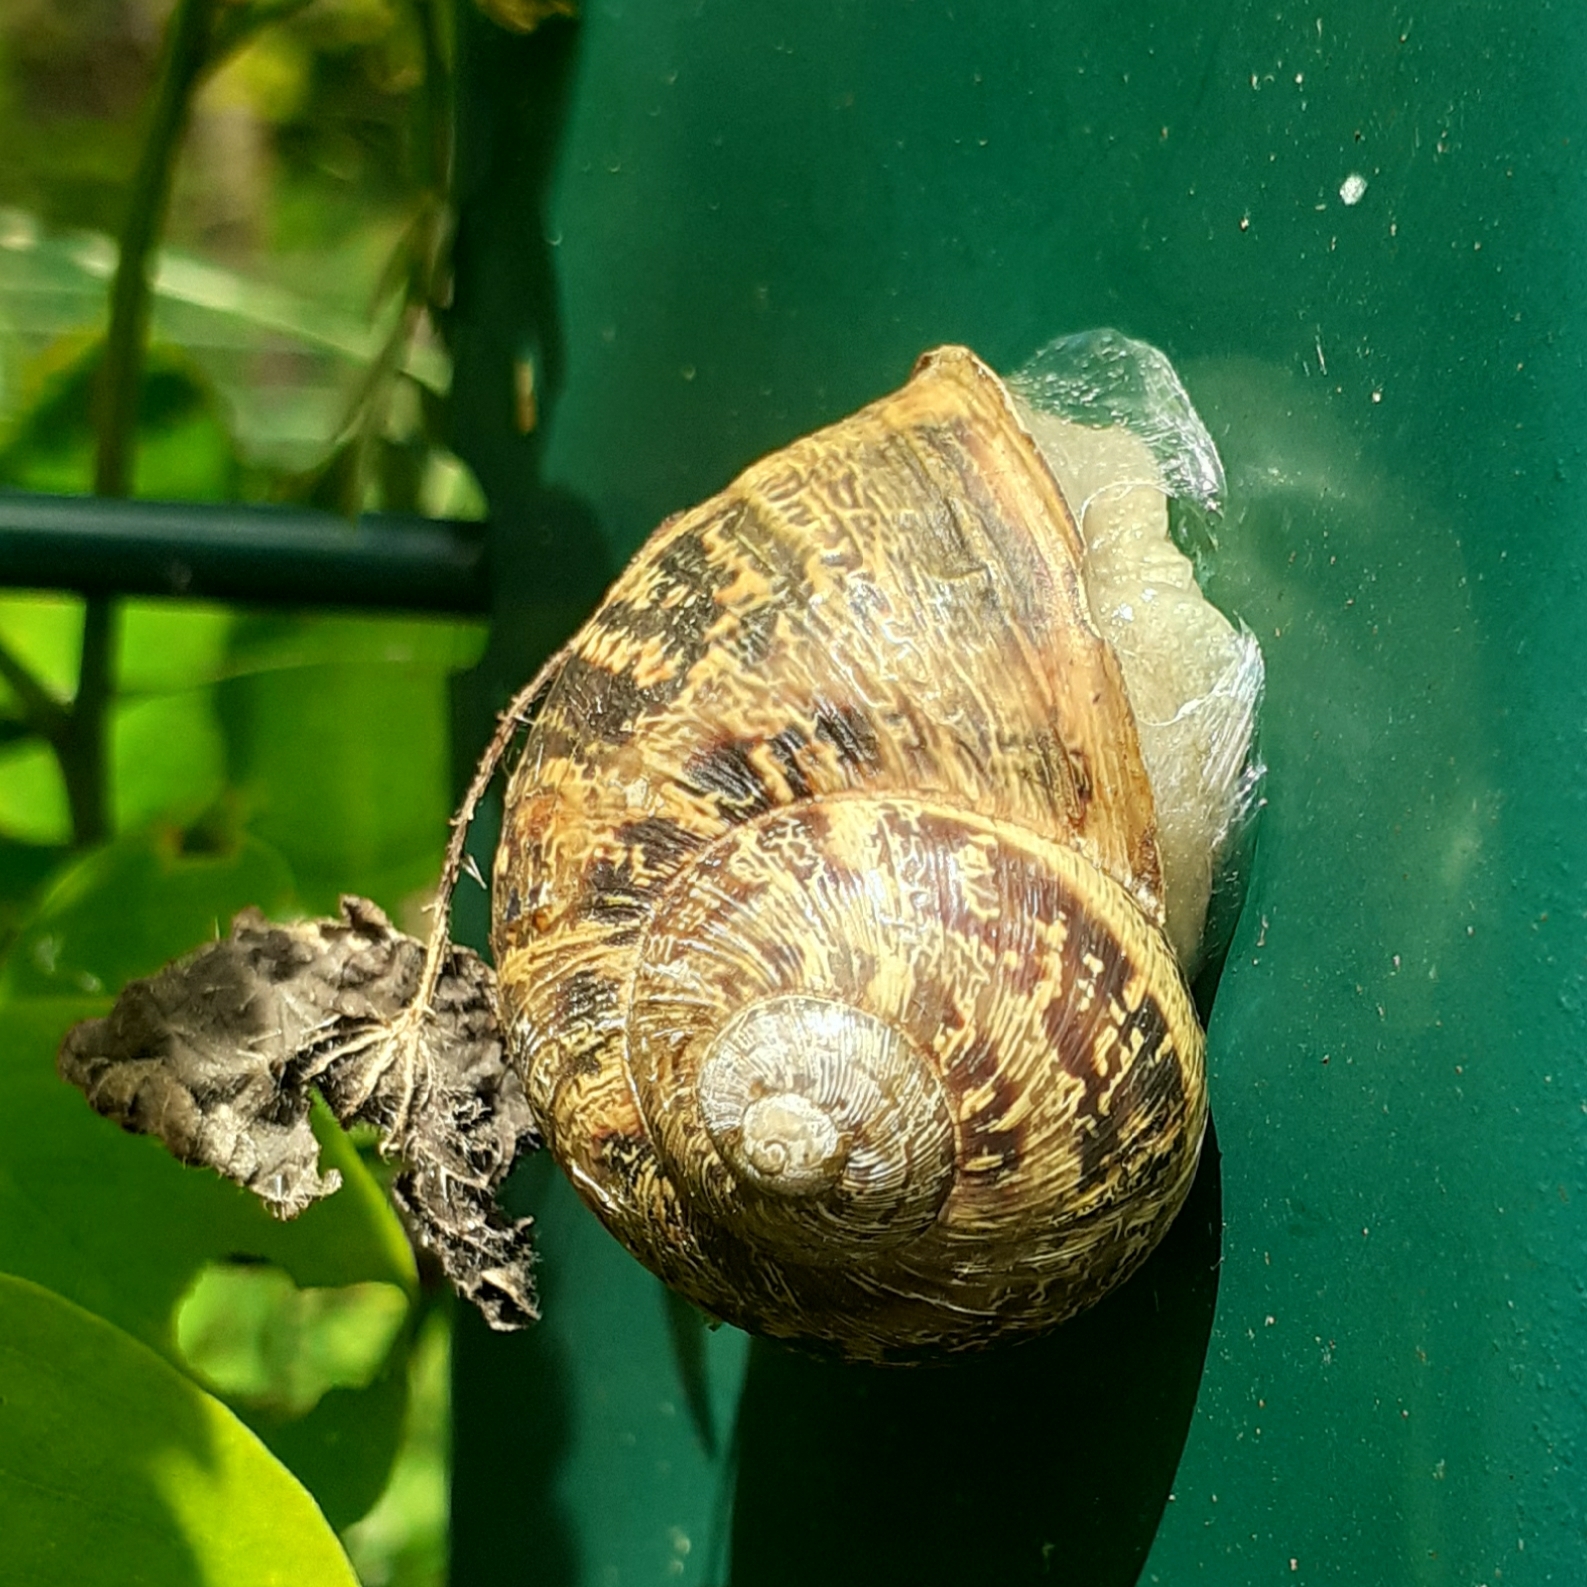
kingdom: Animalia
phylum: Mollusca
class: Gastropoda
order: Stylommatophora
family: Helicidae
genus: Cornu
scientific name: Cornu aspersum
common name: Brown garden snail
